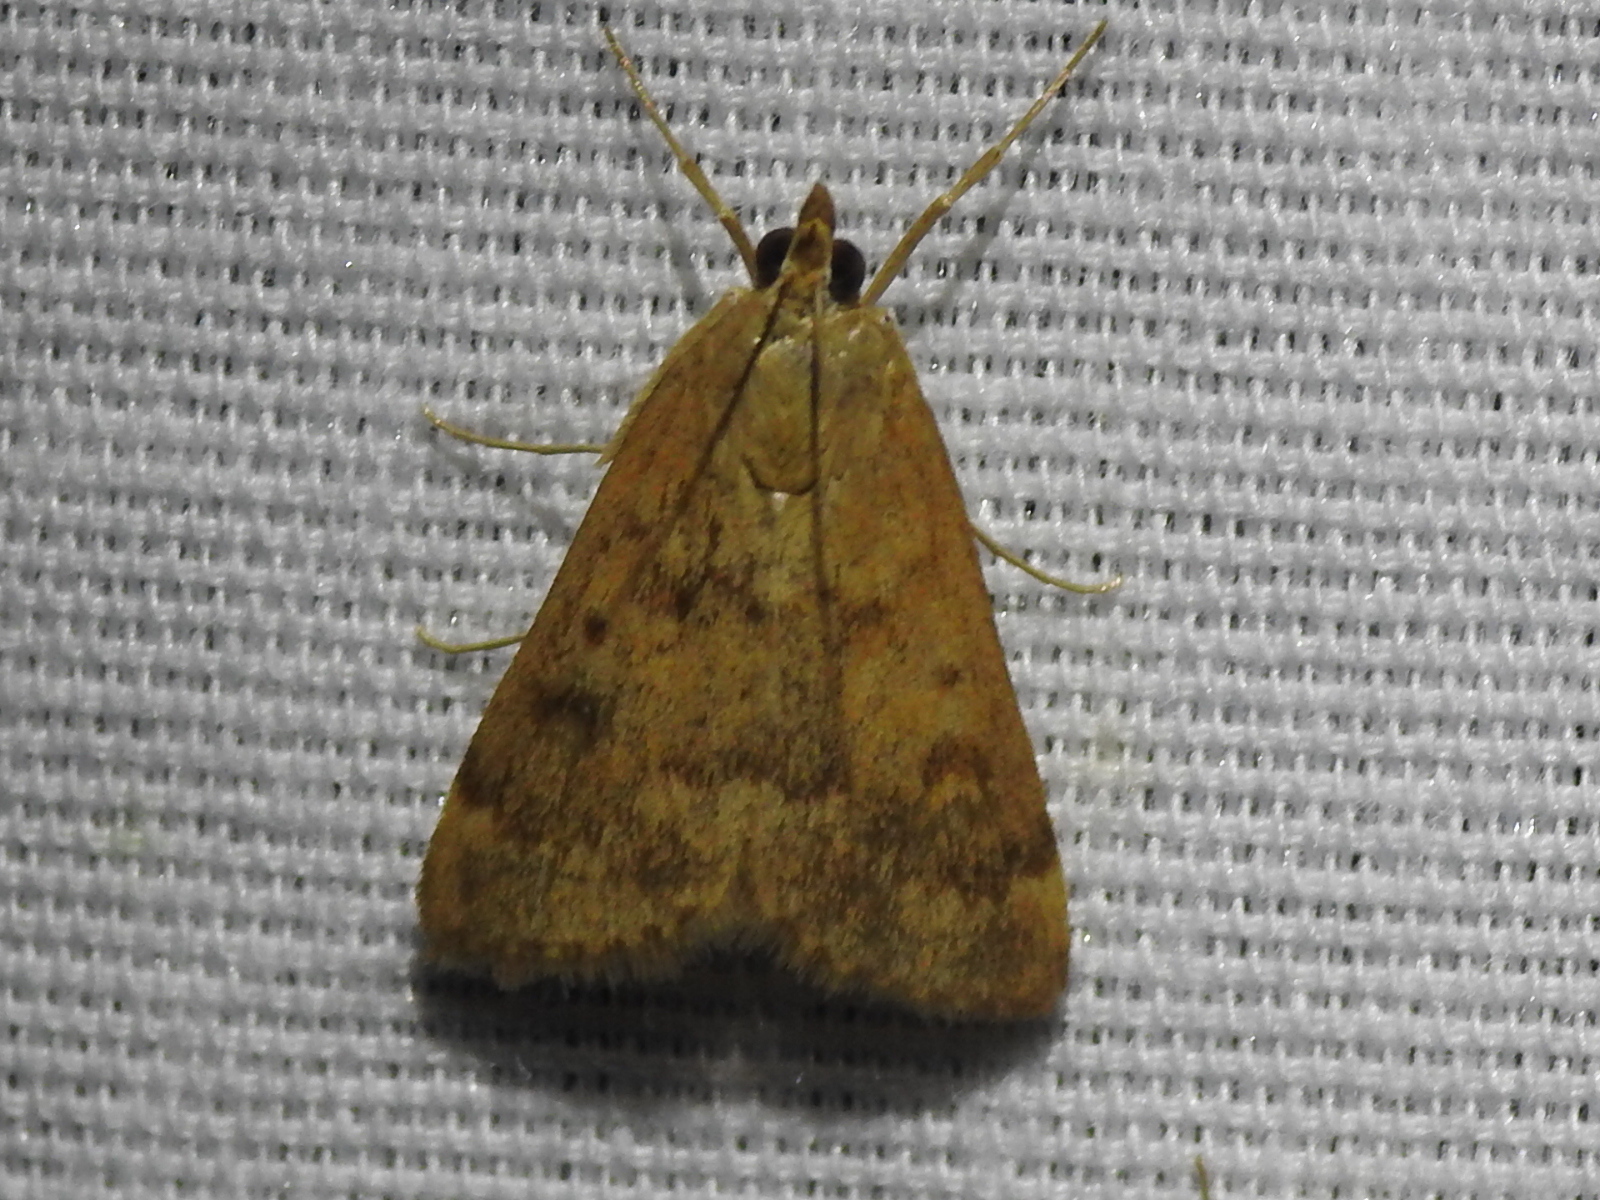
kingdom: Animalia
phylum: Arthropoda
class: Insecta
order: Lepidoptera
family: Crambidae
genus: Achyra
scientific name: Achyra rantalis
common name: Garden webworm
